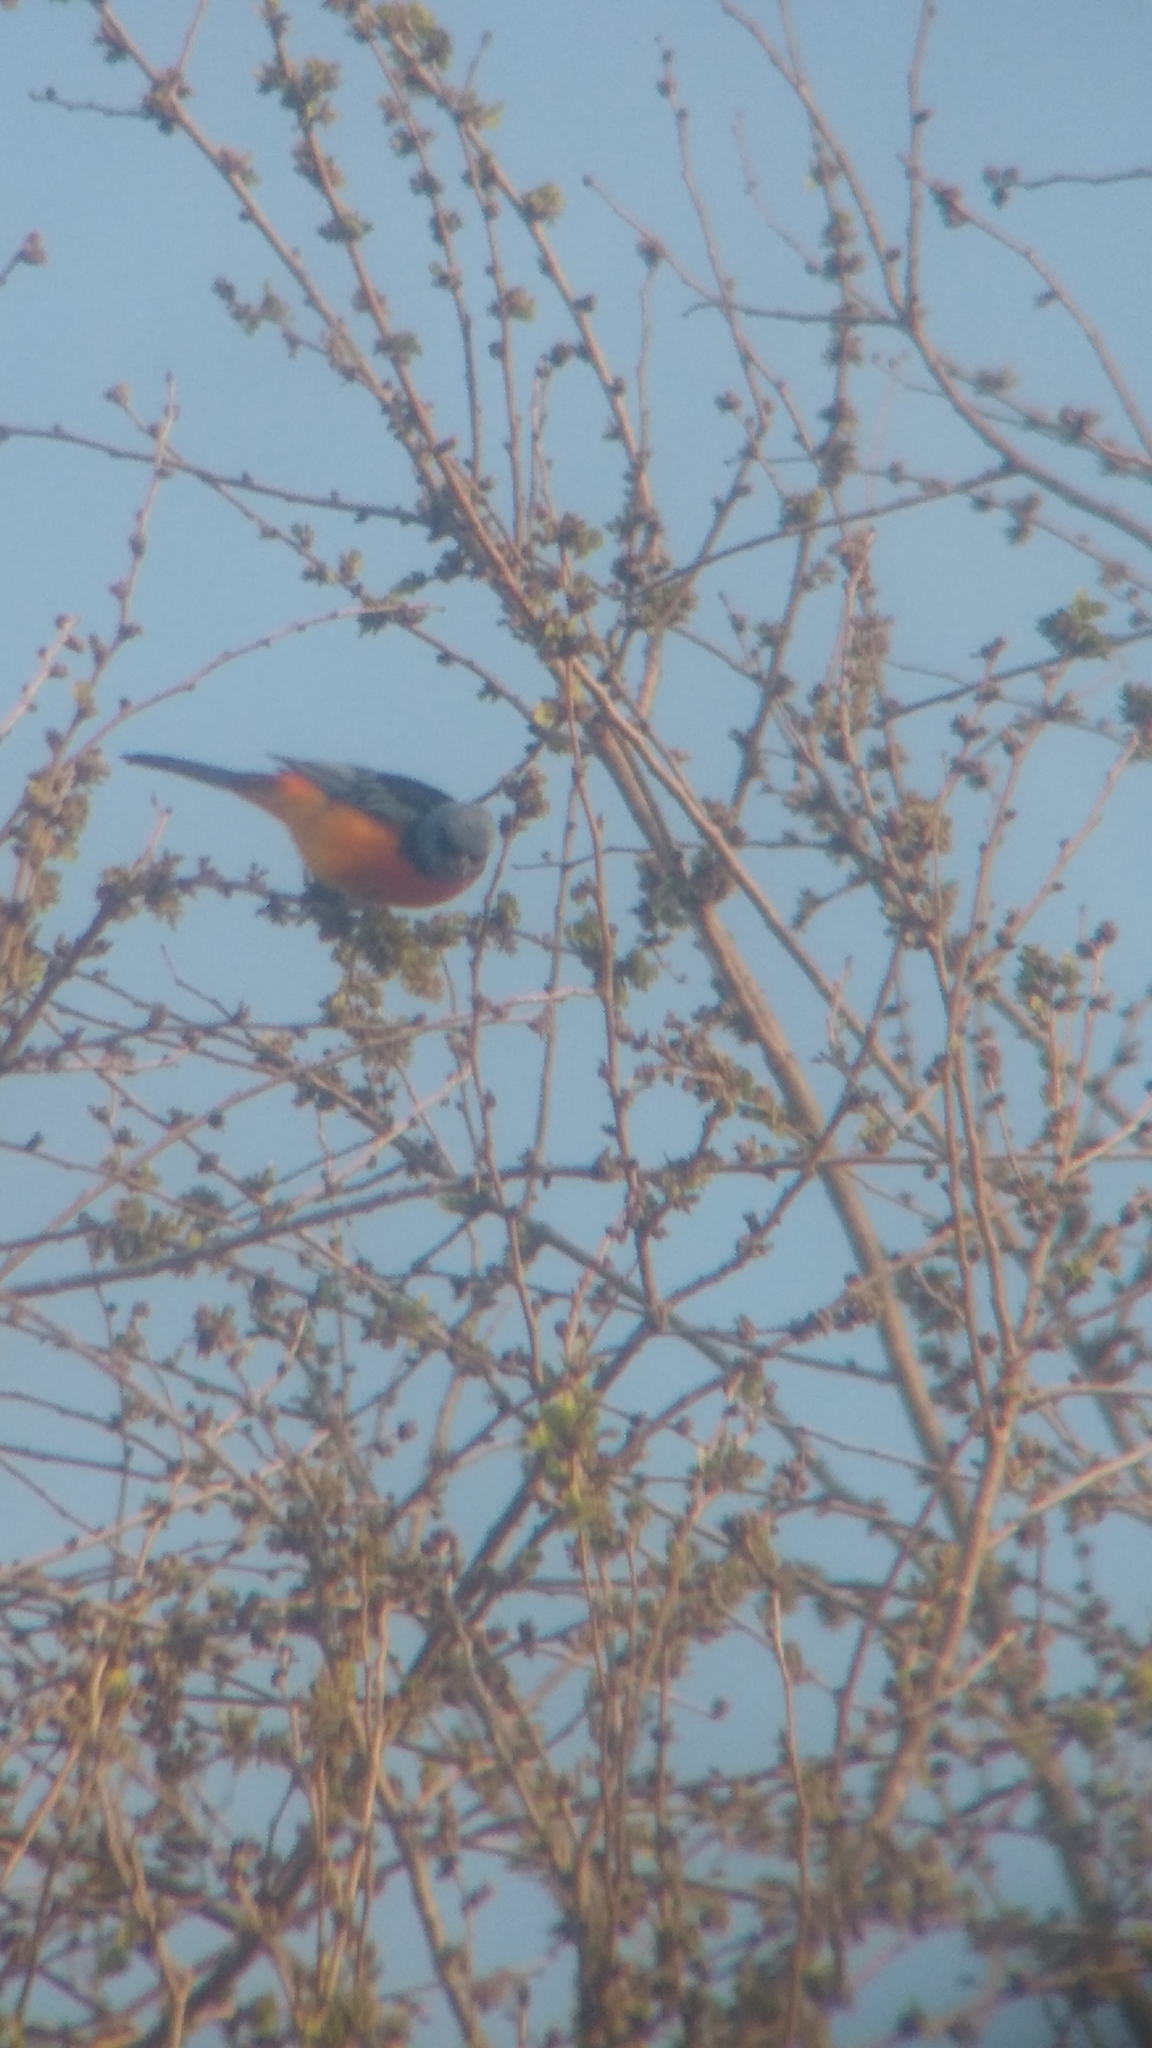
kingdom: Animalia
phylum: Chordata
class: Aves
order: Passeriformes
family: Thraupidae
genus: Rauenia
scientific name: Rauenia bonariensis
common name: Blue-and-yellow tanager
